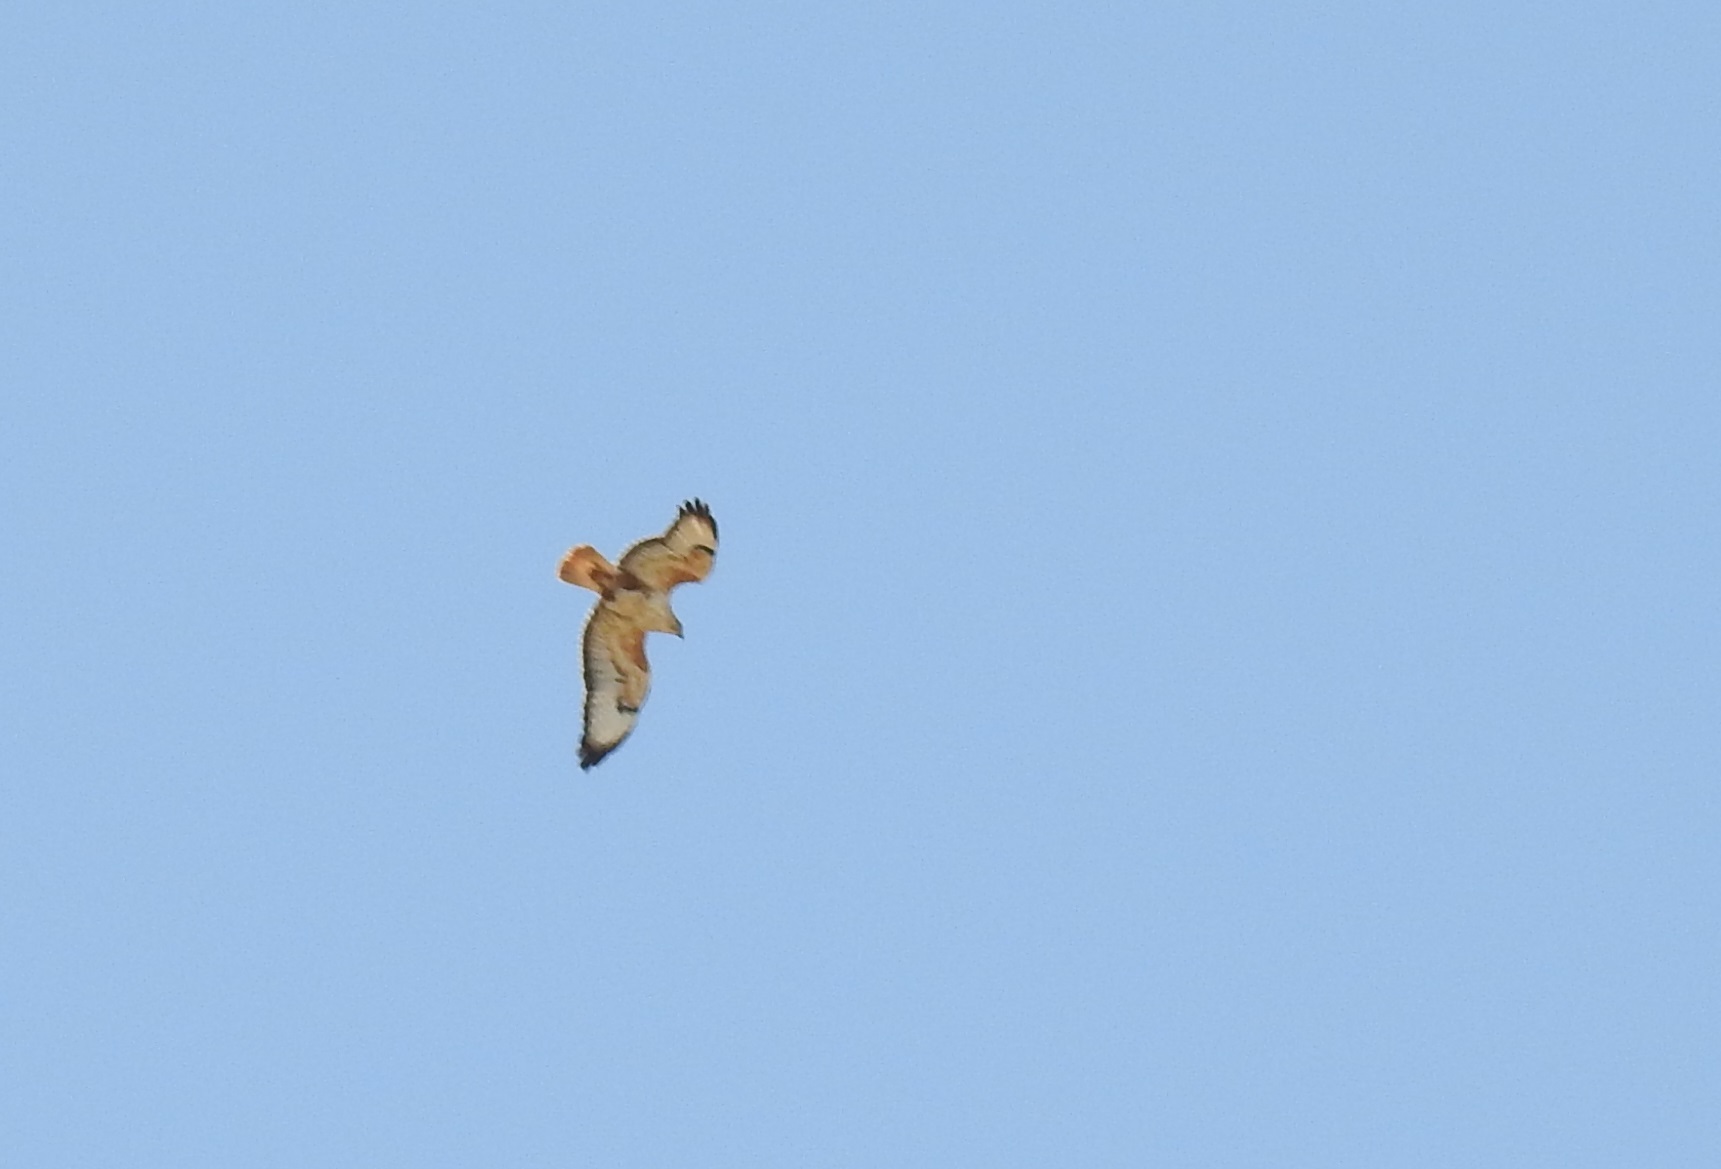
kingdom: Animalia
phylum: Chordata
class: Aves
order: Accipitriformes
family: Accipitridae
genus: Buteo
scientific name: Buteo rufinus
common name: Long-legged buzzard
